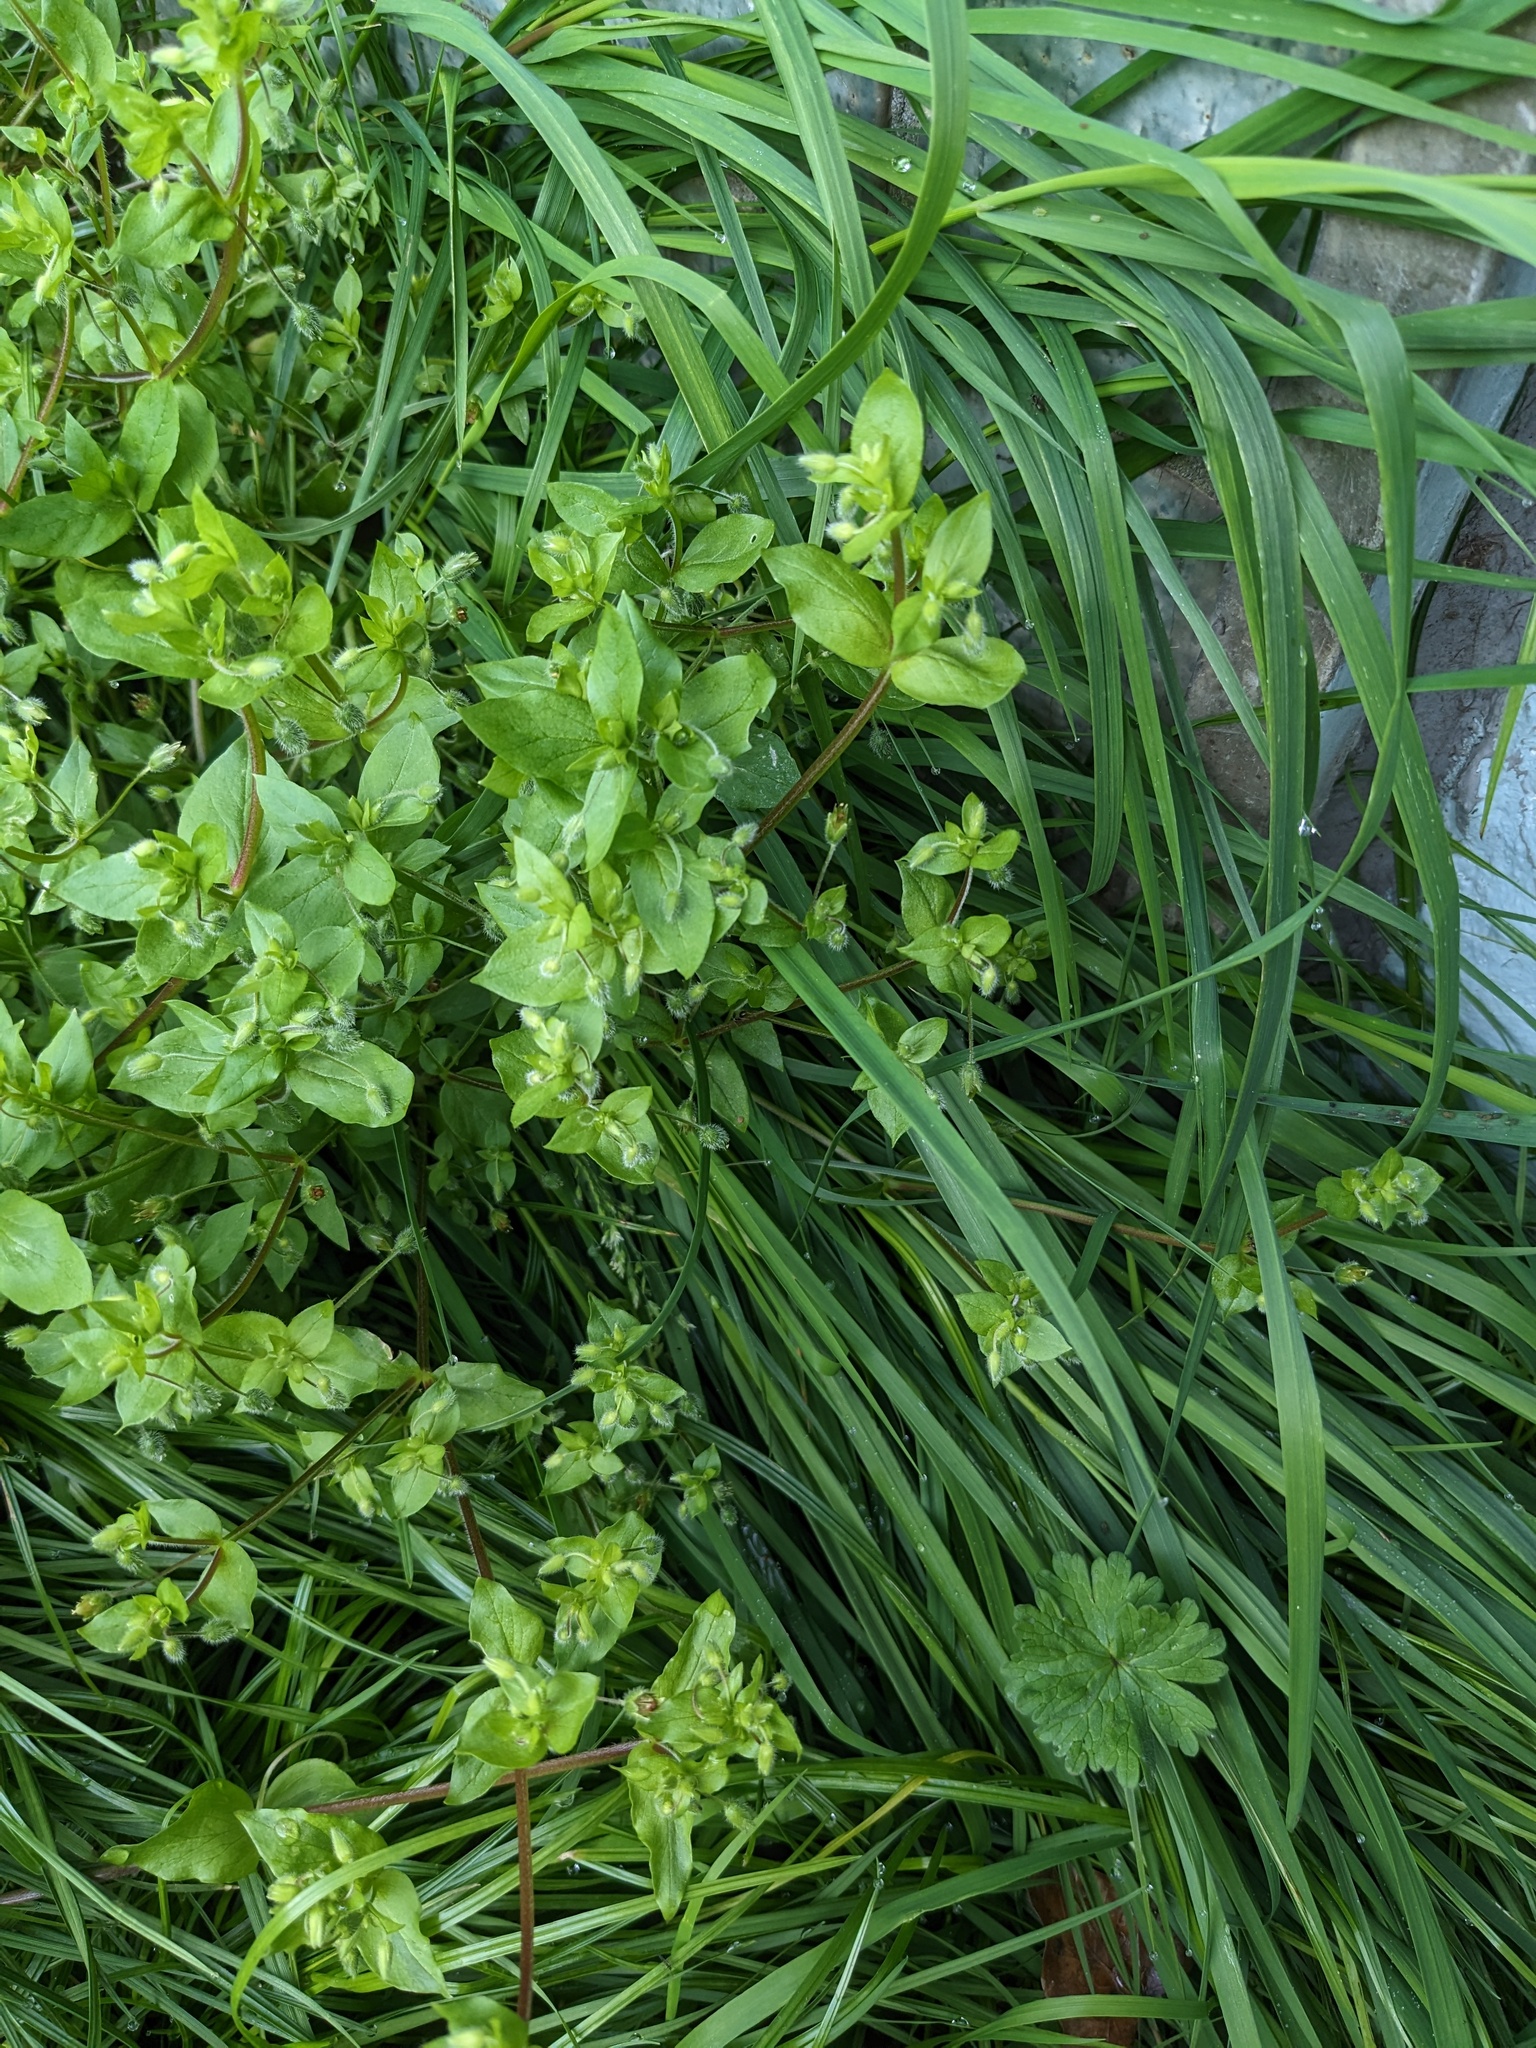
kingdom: Plantae
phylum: Tracheophyta
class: Magnoliopsida
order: Caryophyllales
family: Caryophyllaceae
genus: Stellaria
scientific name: Stellaria media
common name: Common chickweed
